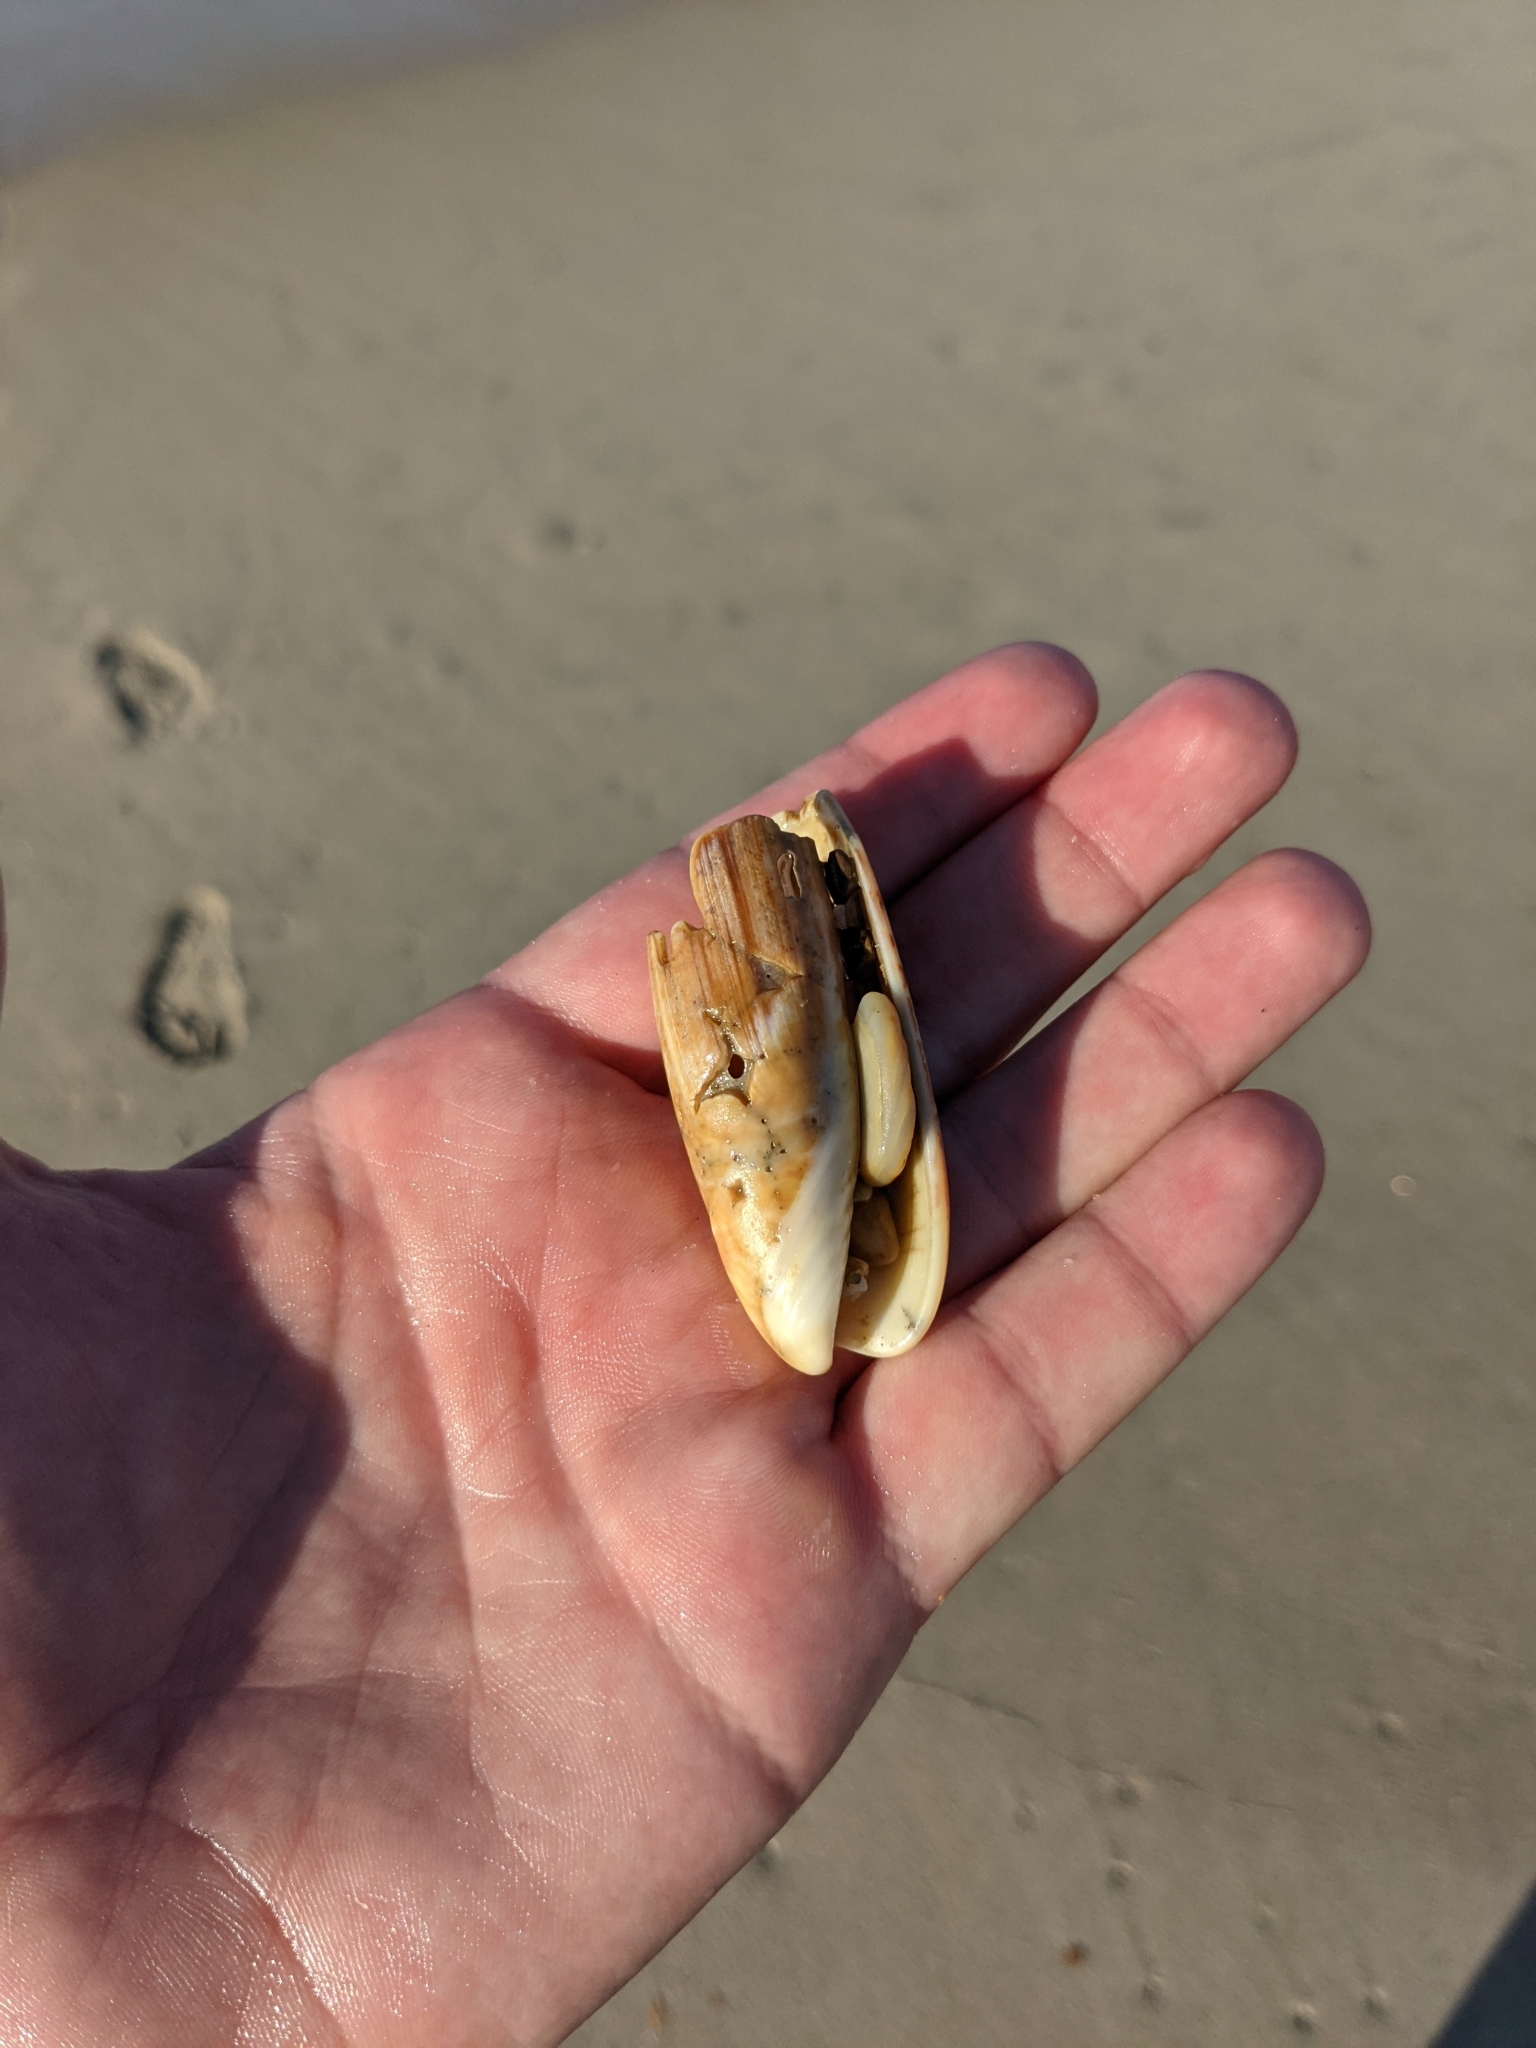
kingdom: Animalia
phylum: Mollusca
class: Gastropoda
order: Neogastropoda
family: Olividae
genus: Oliva
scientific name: Oliva sayana
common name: Lettered olive
